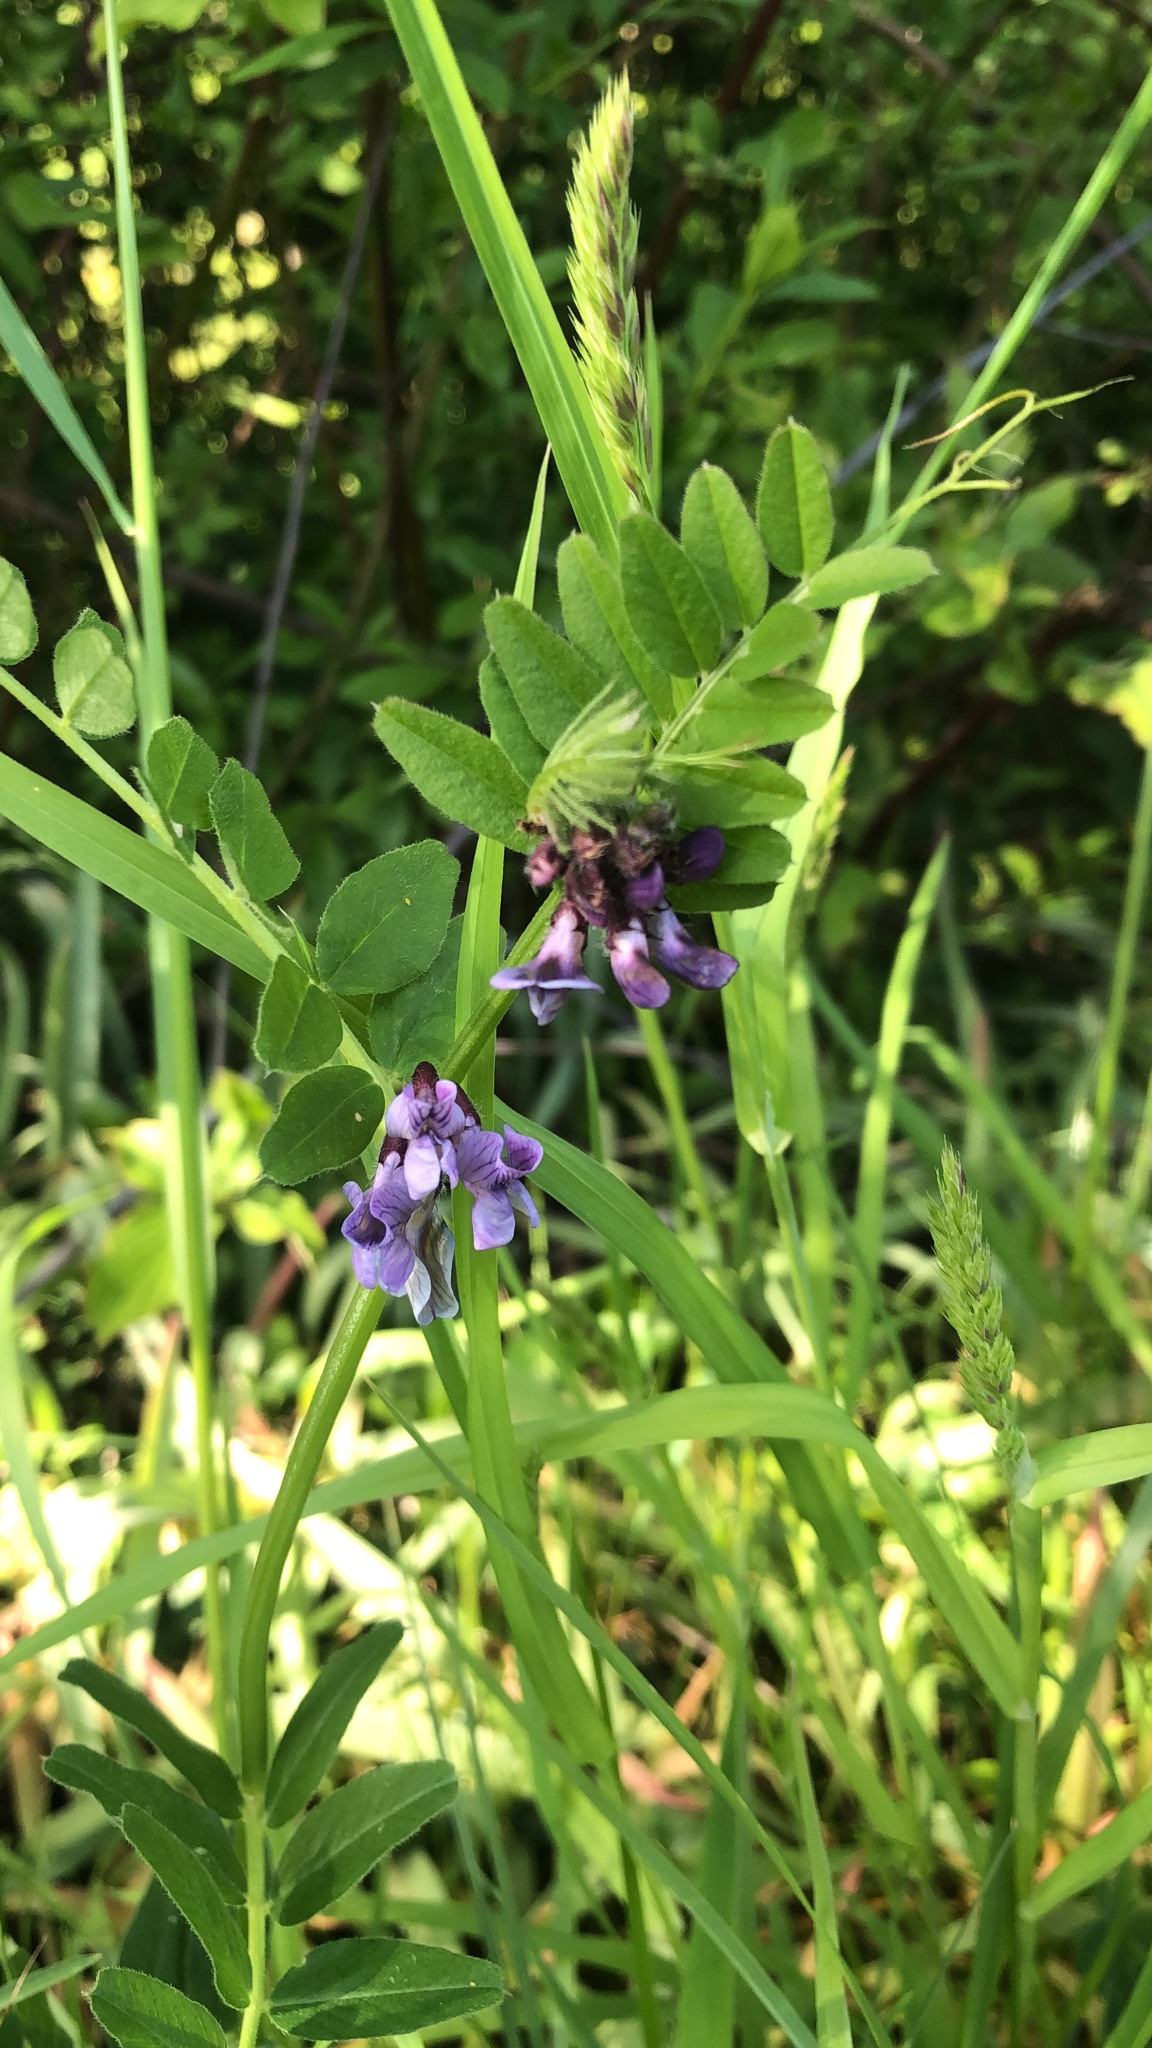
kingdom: Plantae
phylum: Tracheophyta
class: Magnoliopsida
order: Fabales
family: Fabaceae
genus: Vicia
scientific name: Vicia sepium
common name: Bush vetch
